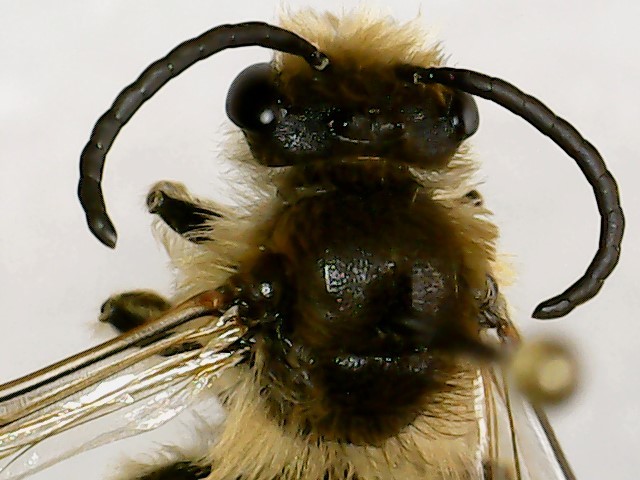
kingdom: Animalia
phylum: Arthropoda
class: Insecta
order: Hymenoptera
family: Colletidae
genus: Colletes
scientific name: Colletes inaequalis
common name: Unequal cellophane bee
